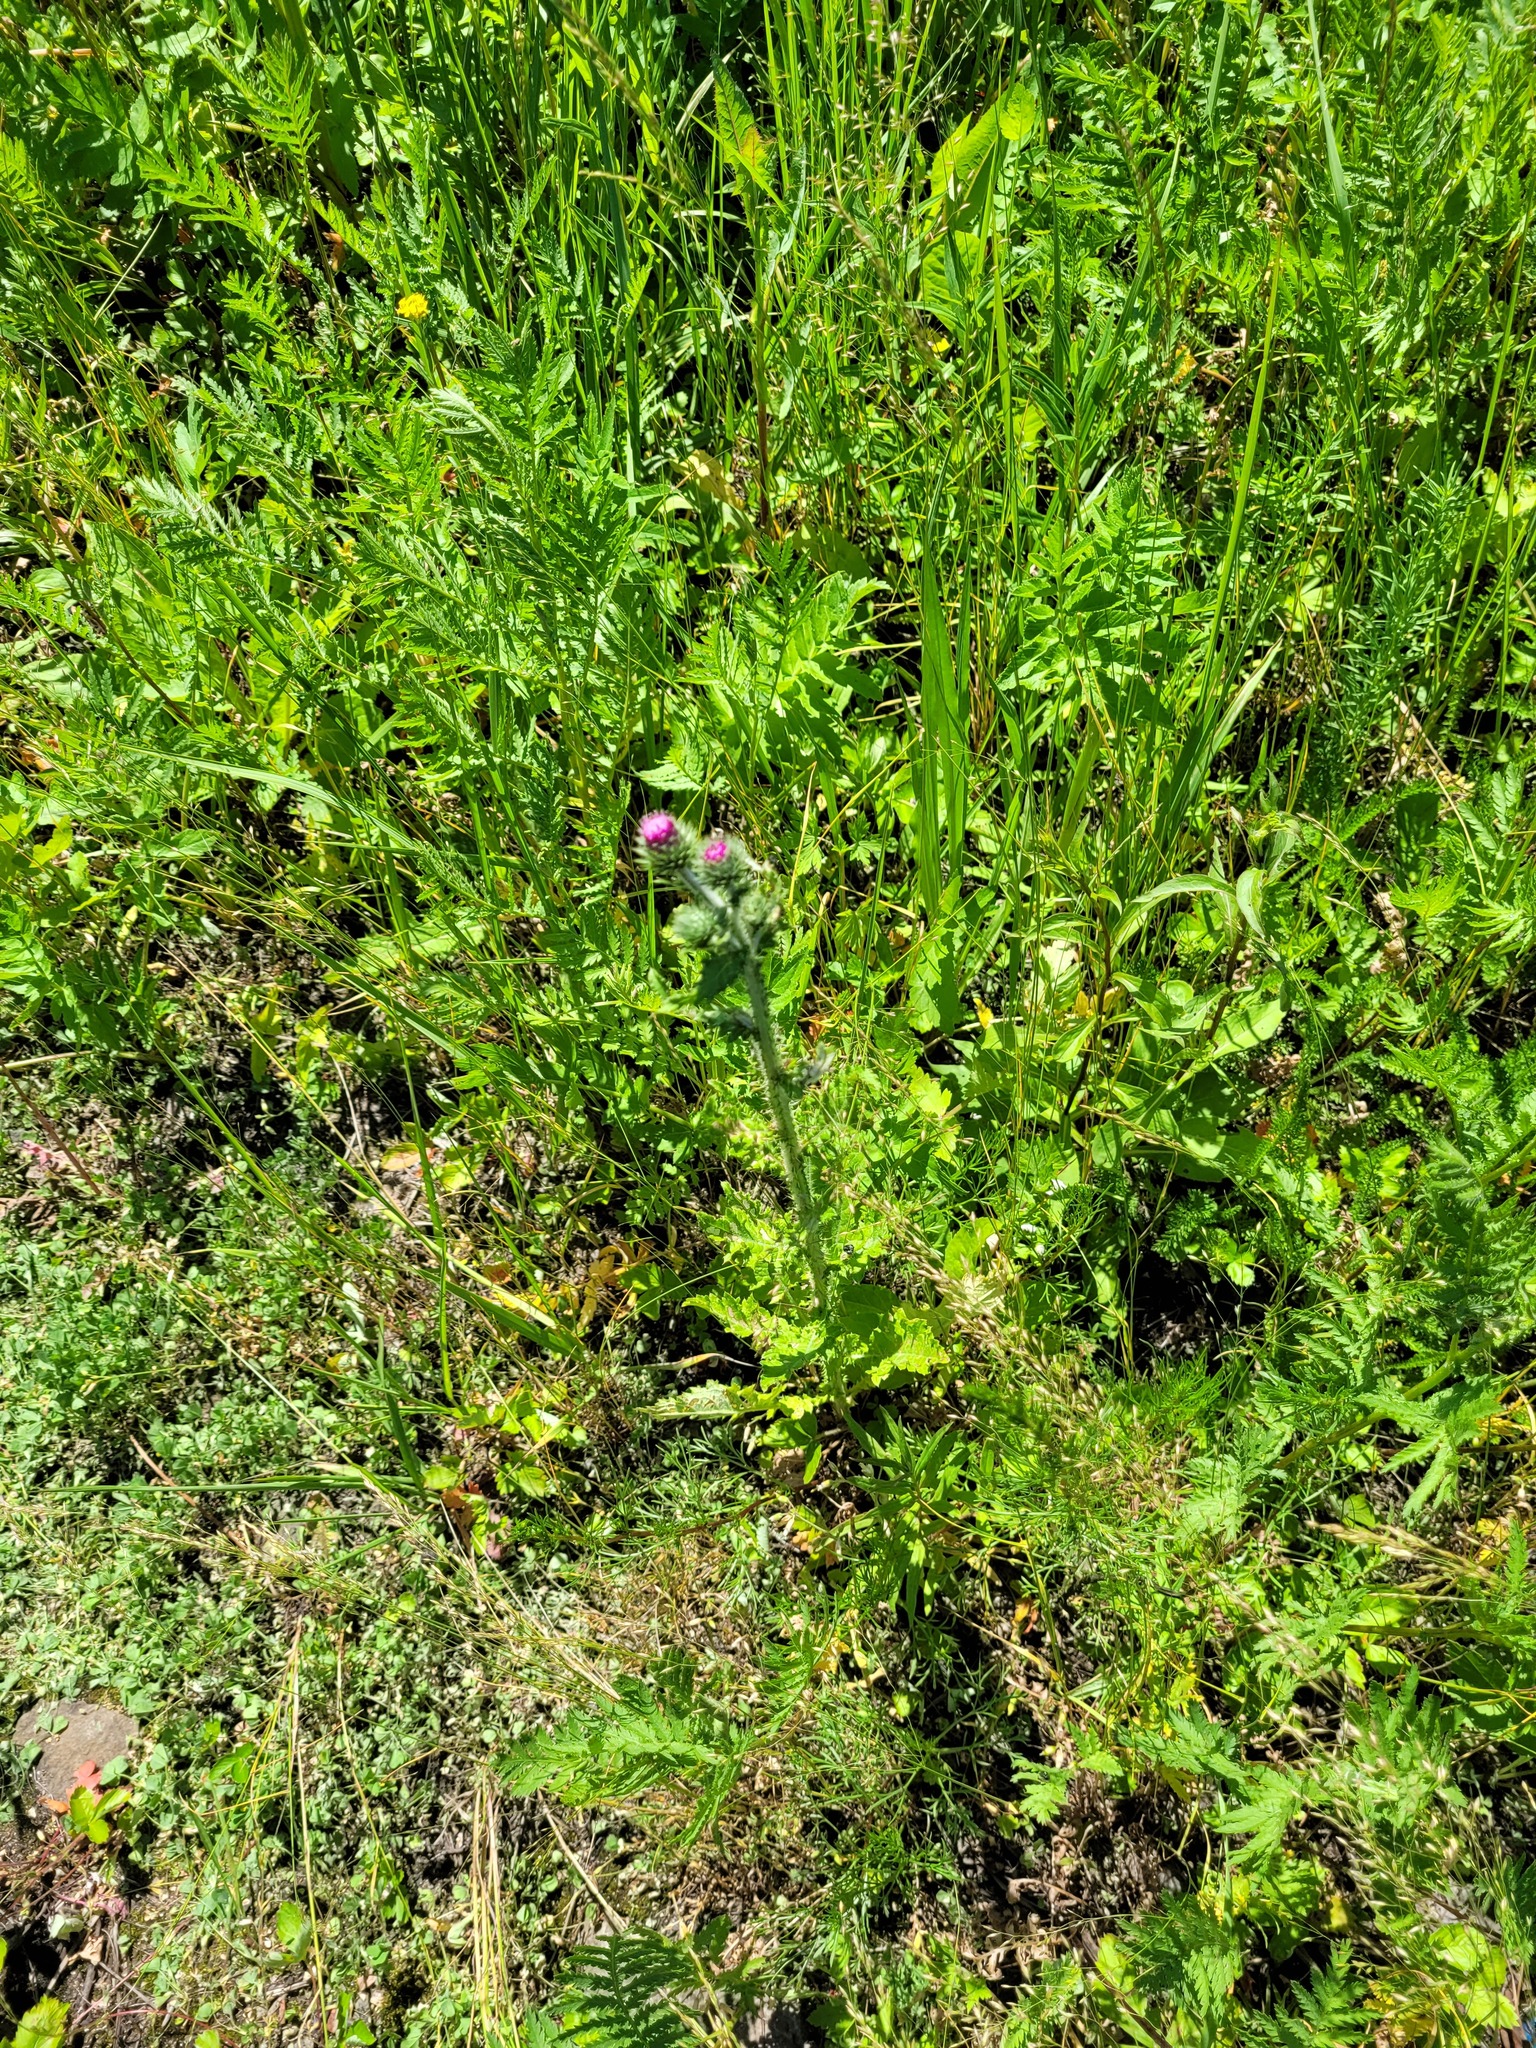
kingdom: Plantae
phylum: Tracheophyta
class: Magnoliopsida
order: Asterales
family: Asteraceae
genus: Carduus
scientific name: Carduus crispus
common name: Welted thistle
